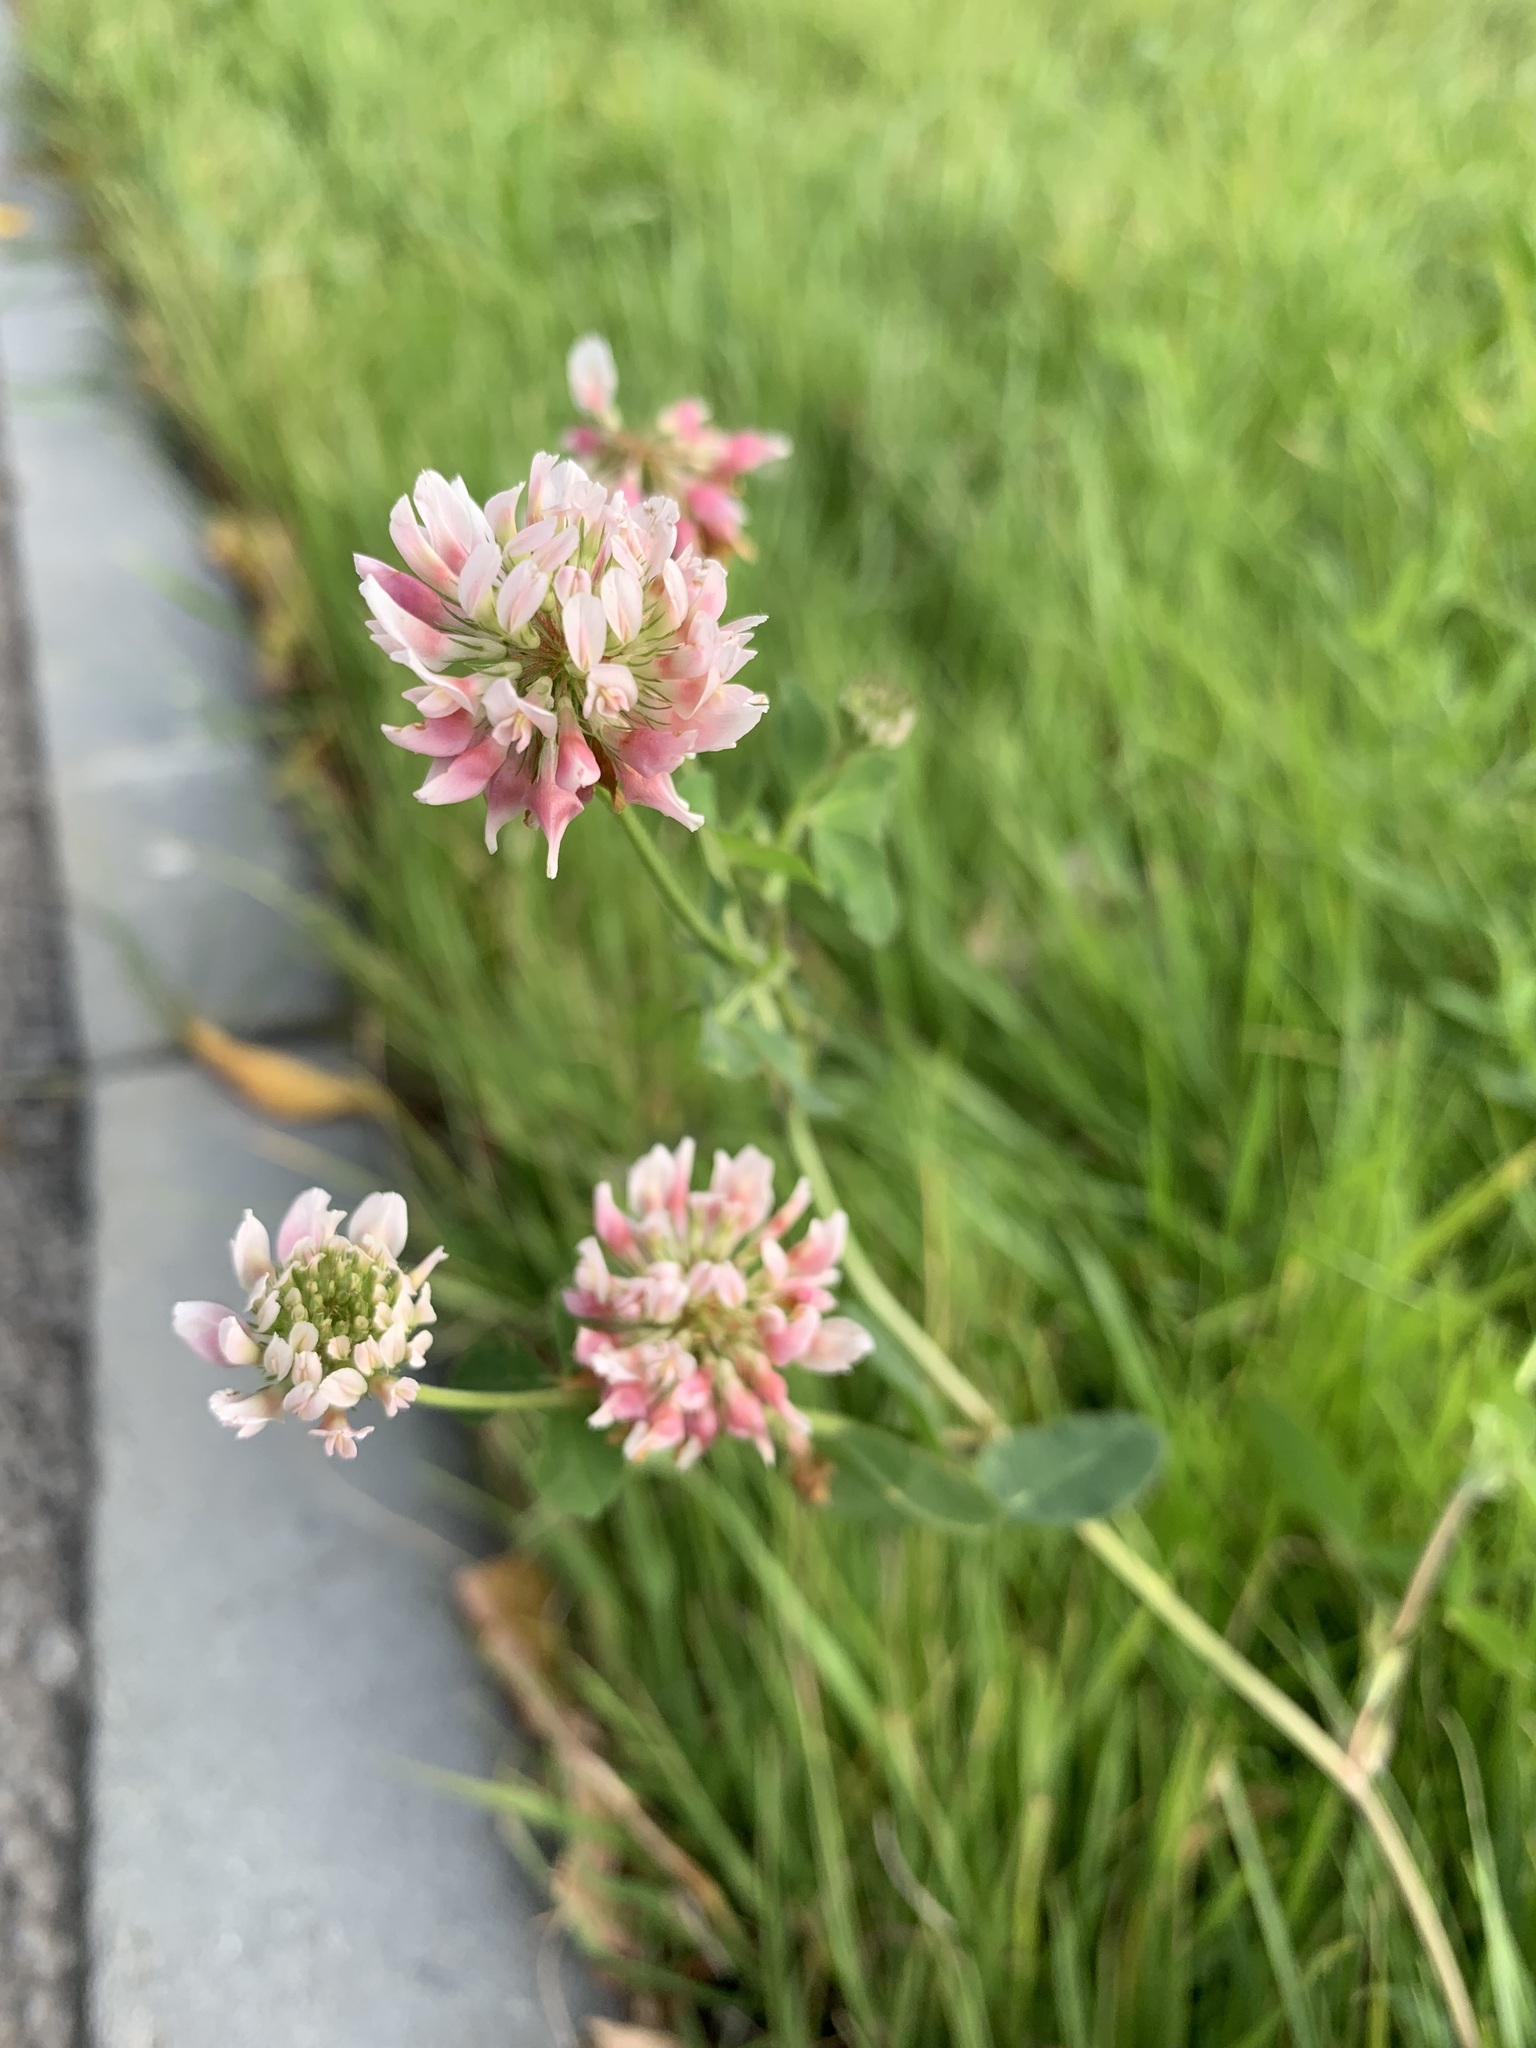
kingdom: Plantae
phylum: Tracheophyta
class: Magnoliopsida
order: Fabales
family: Fabaceae
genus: Trifolium
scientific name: Trifolium hybridum
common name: Alsike clover
